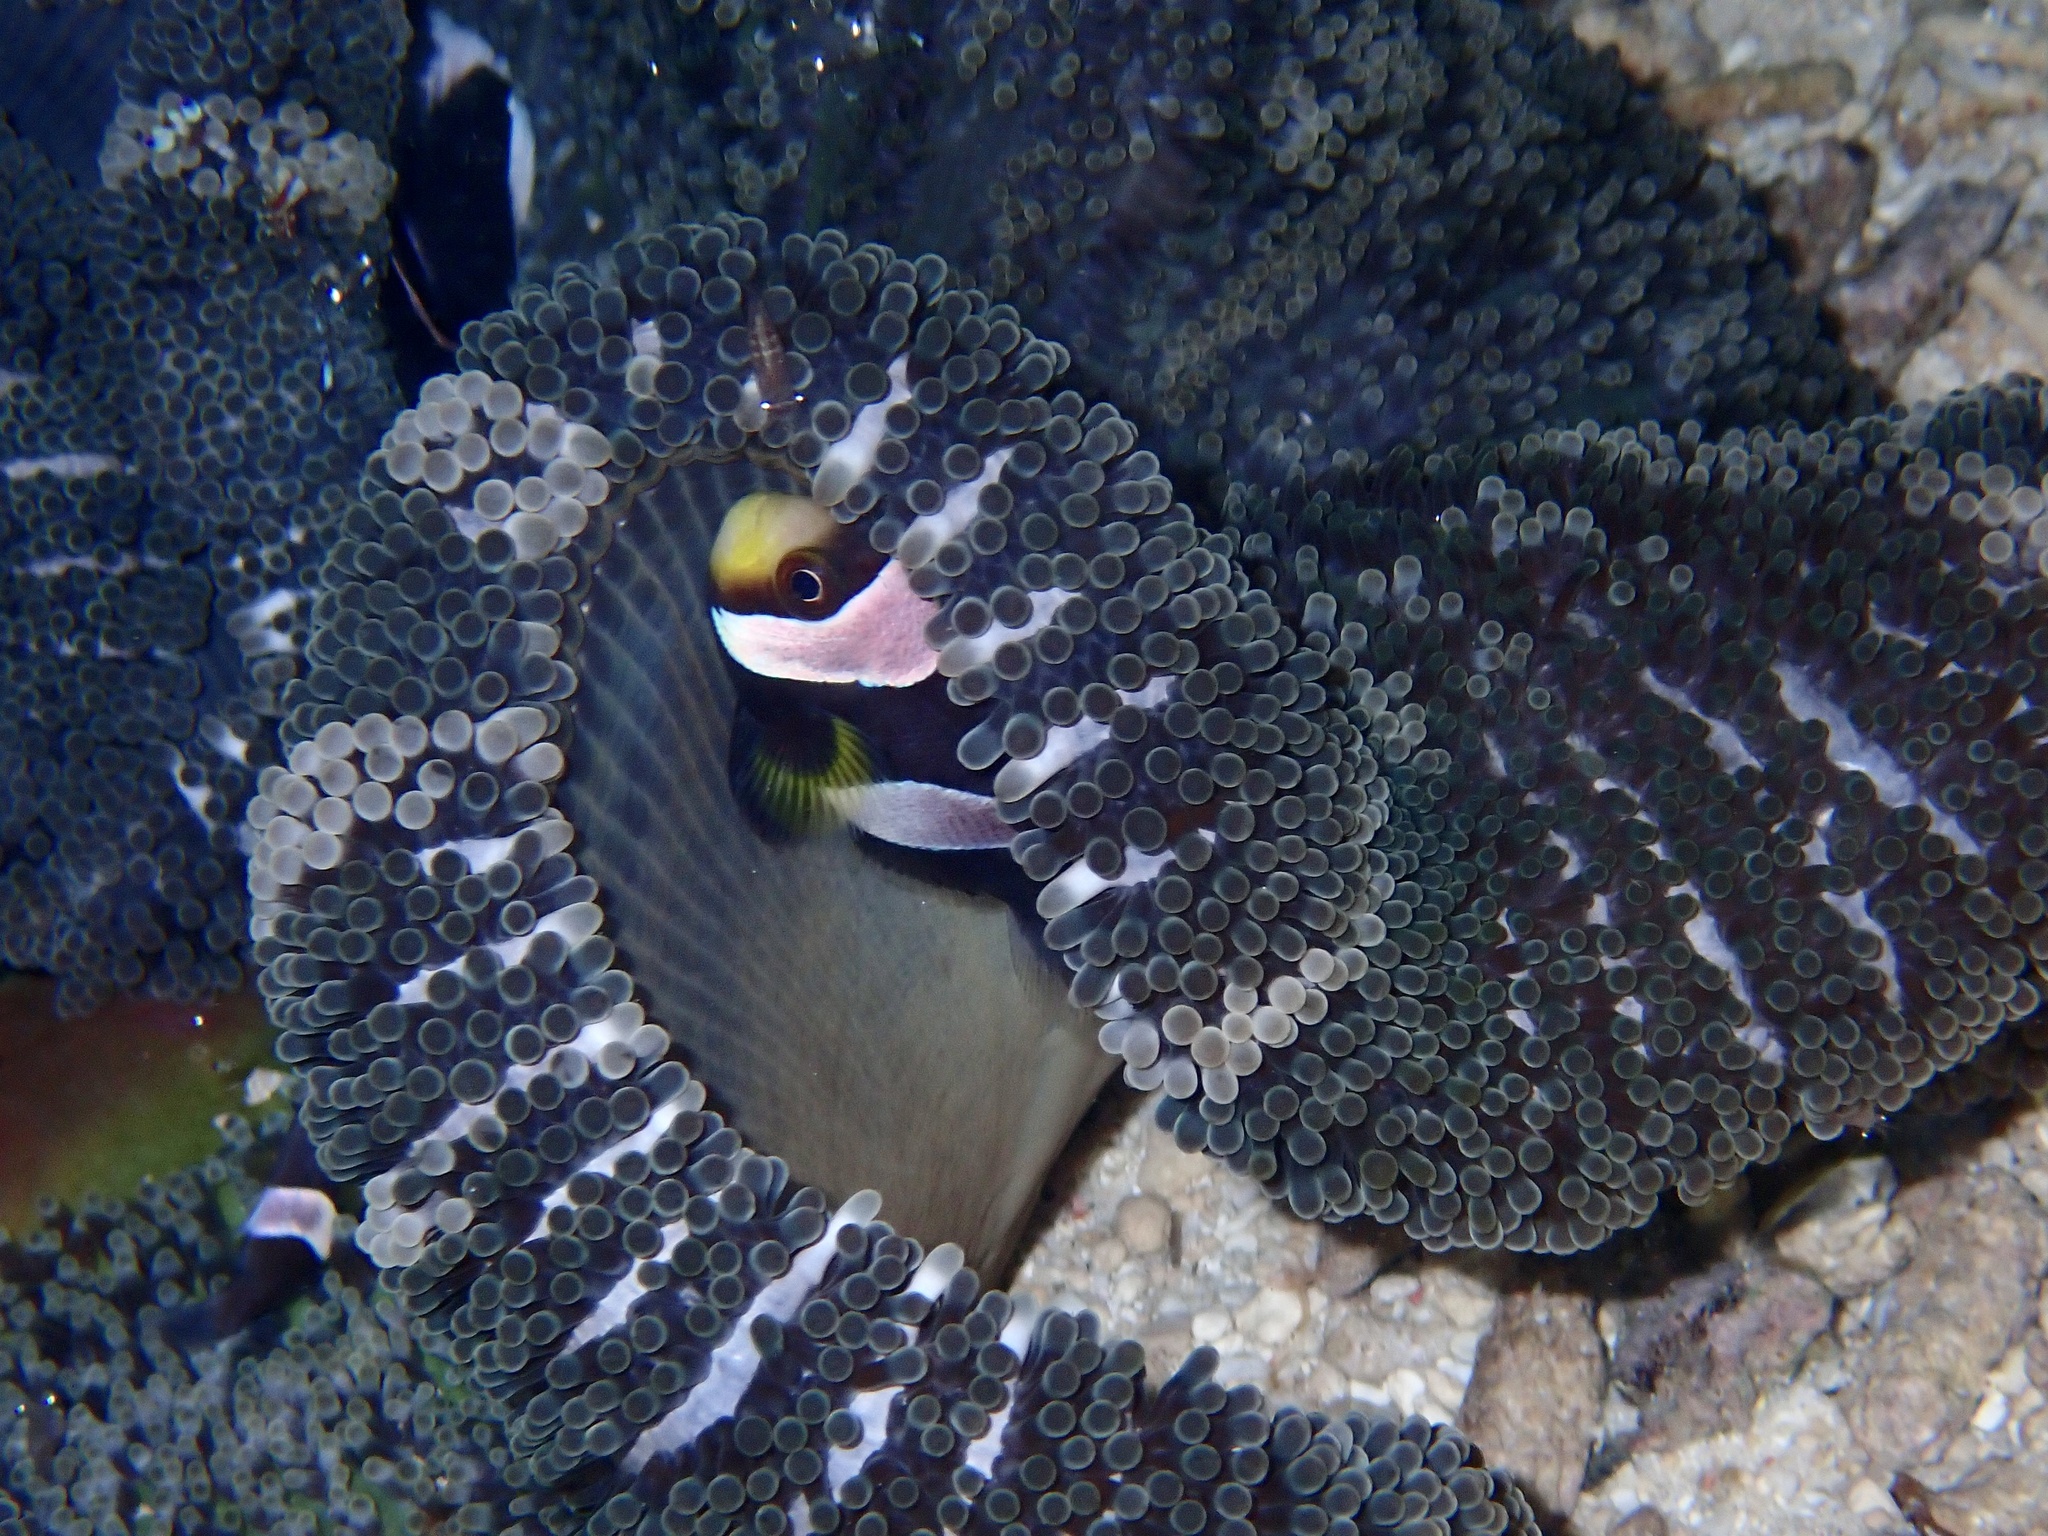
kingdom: Animalia
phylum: Cnidaria
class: Anthozoa
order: Actiniaria
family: Stichodactylidae
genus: Stichodactyla
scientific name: Stichodactyla haddoni
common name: Haddon's sea anemone
